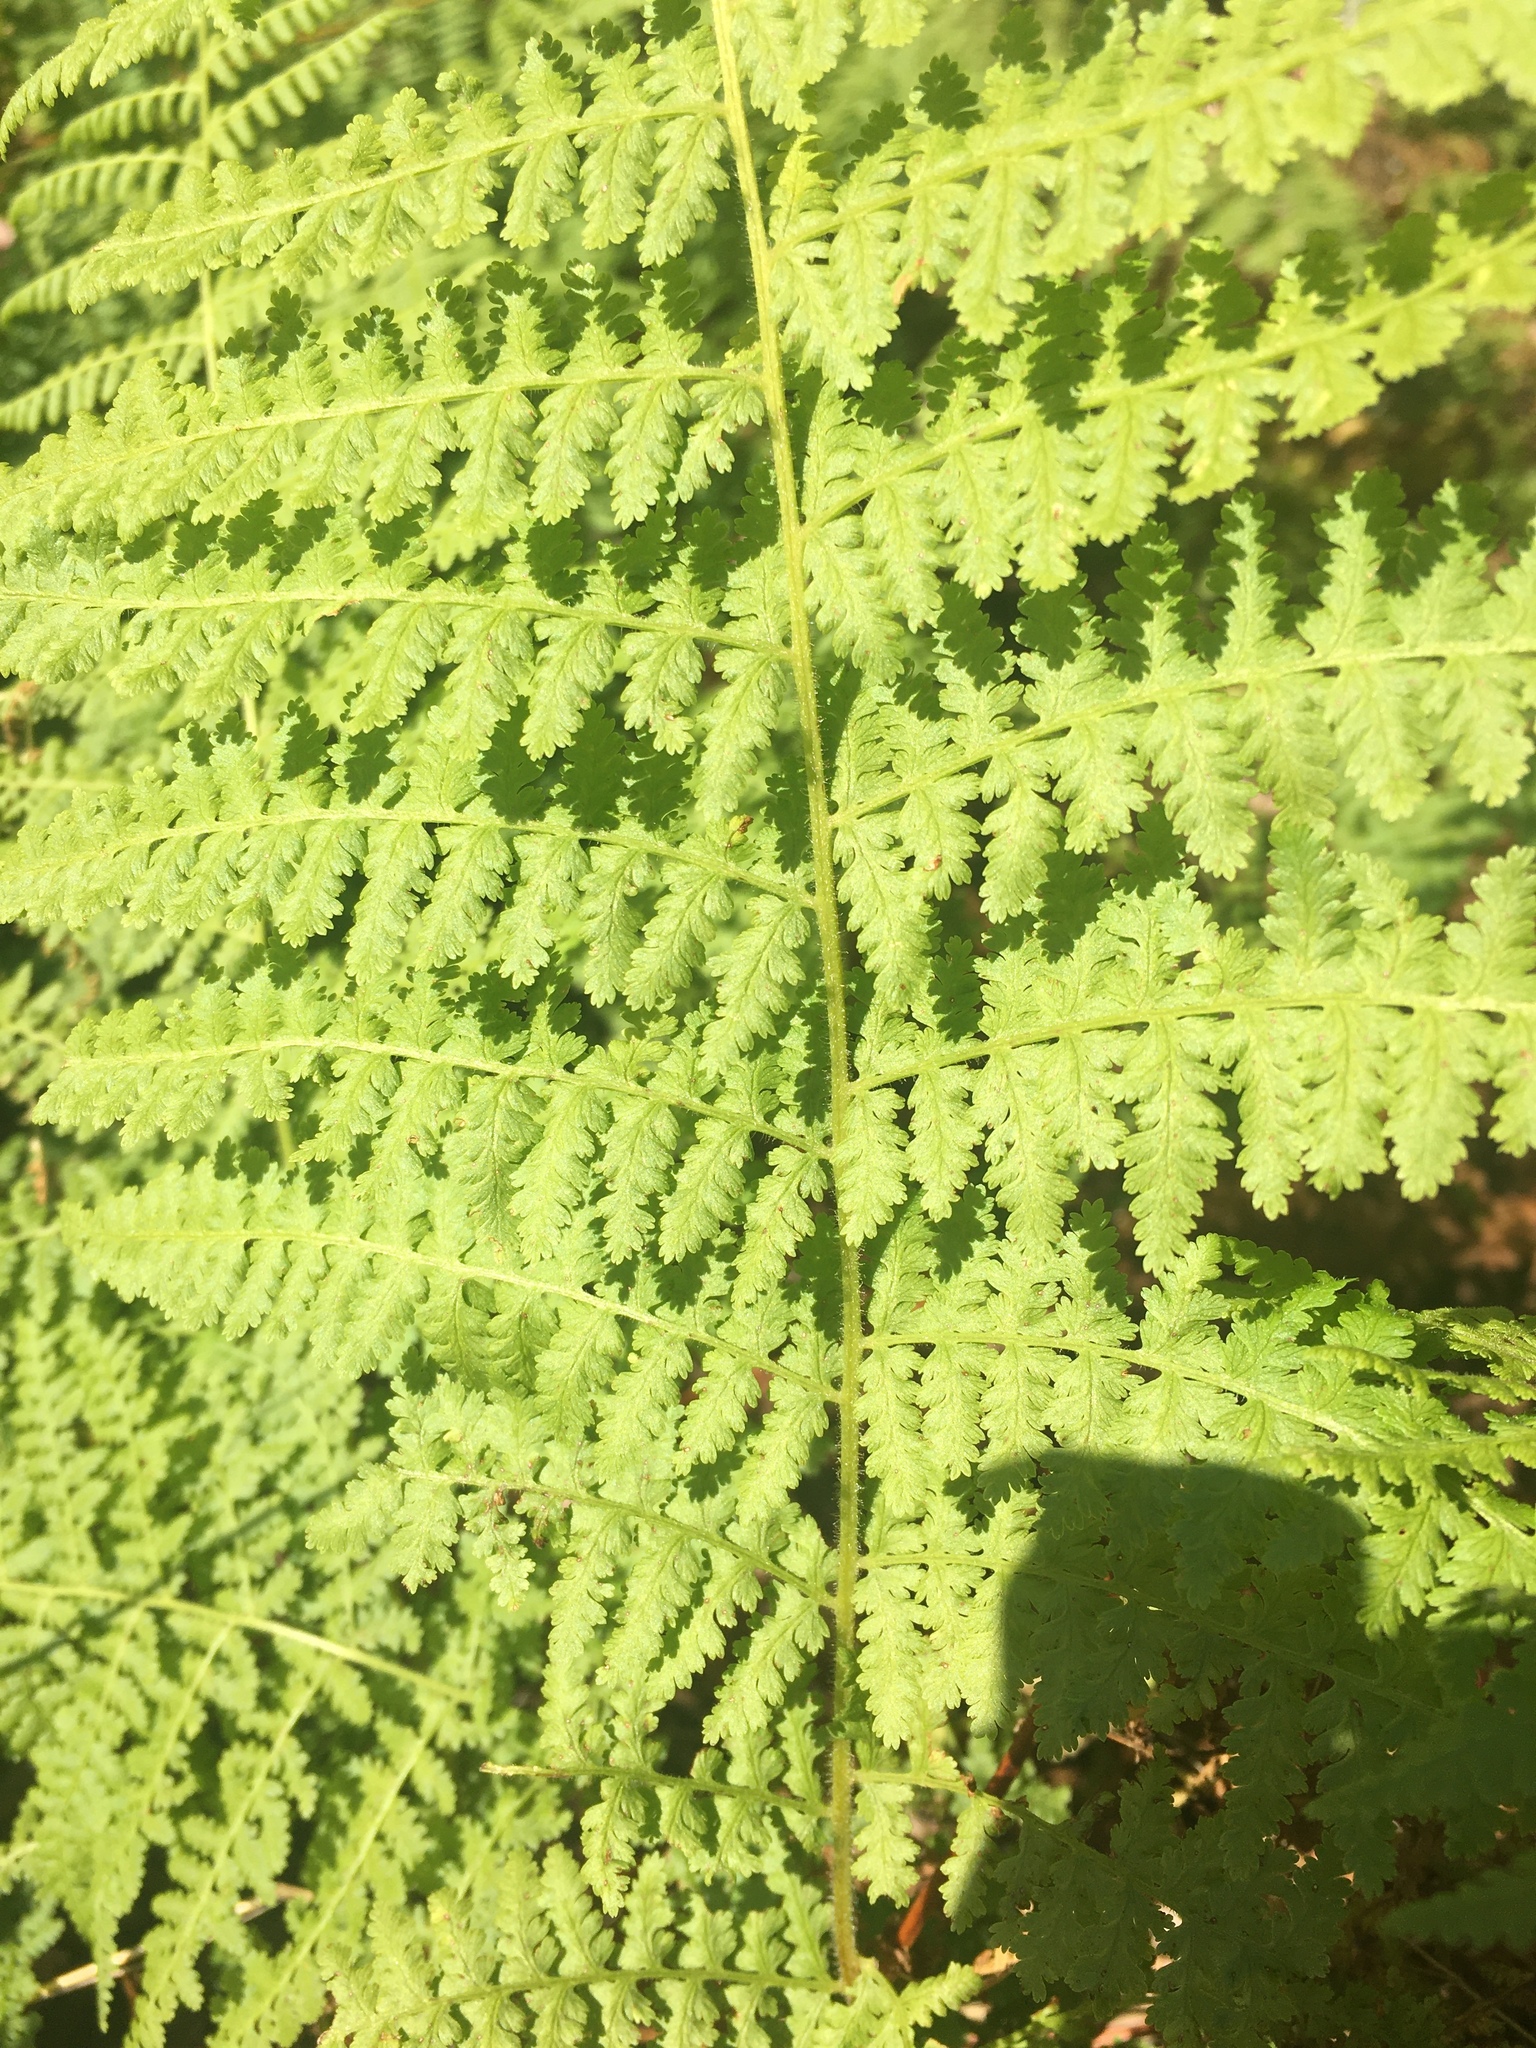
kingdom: Plantae
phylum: Tracheophyta
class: Polypodiopsida
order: Polypodiales
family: Dennstaedtiaceae
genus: Sitobolium
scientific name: Sitobolium punctilobum
